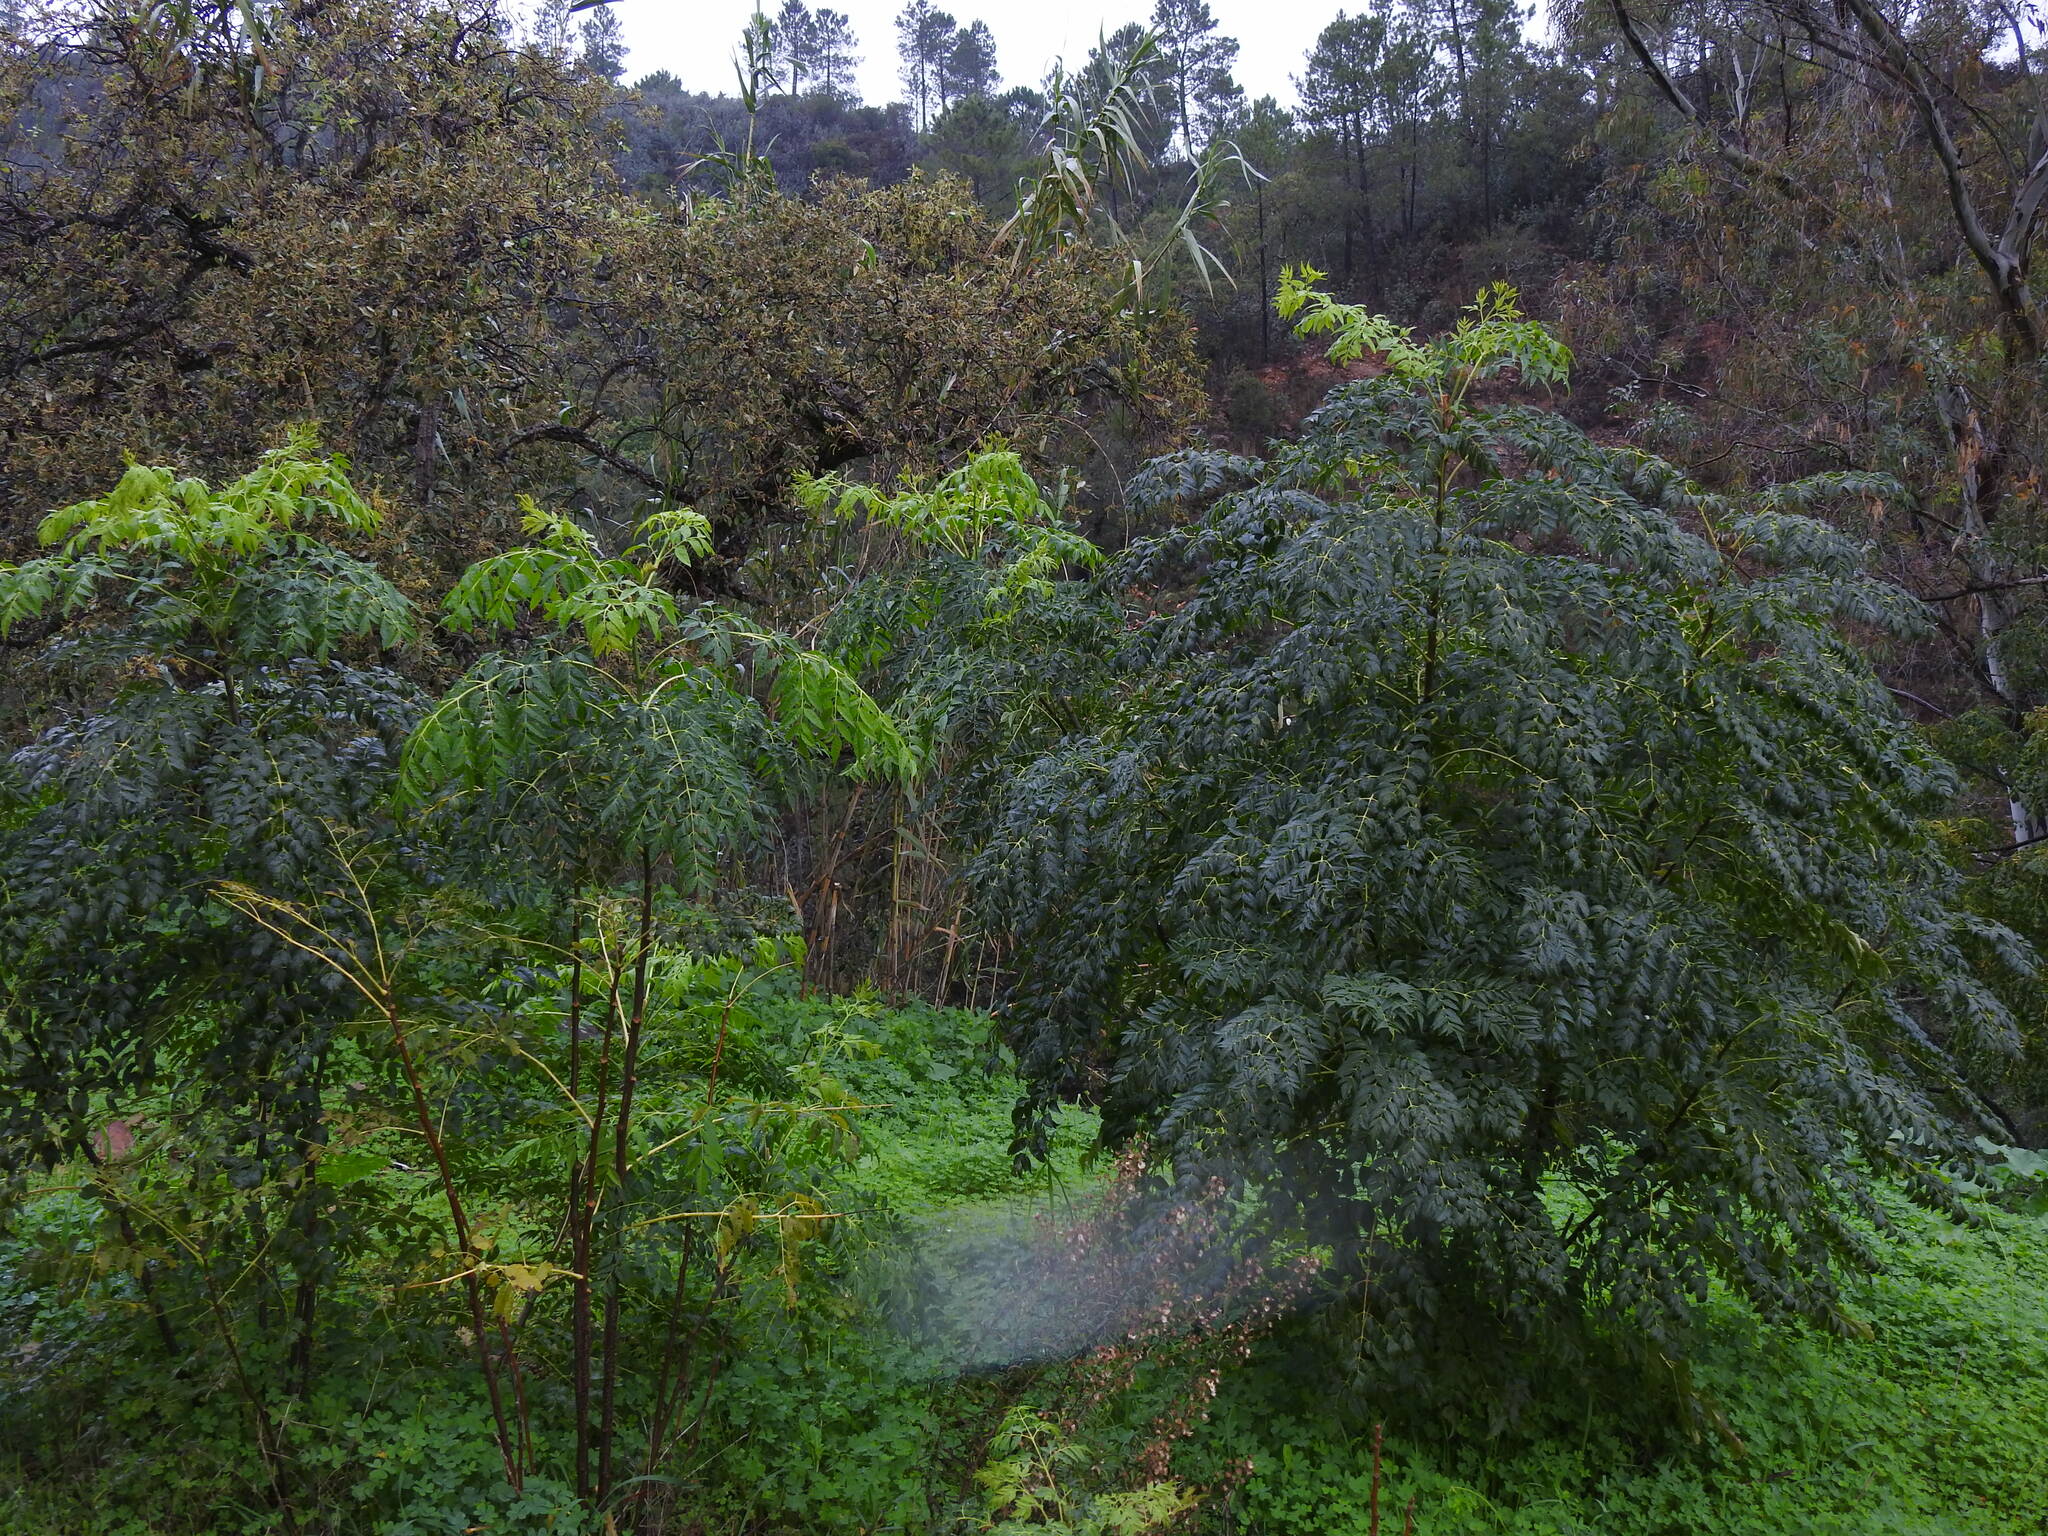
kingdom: Plantae
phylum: Tracheophyta
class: Magnoliopsida
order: Sapindales
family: Meliaceae
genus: Melia
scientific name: Melia azedarach
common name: Chinaberrytree
